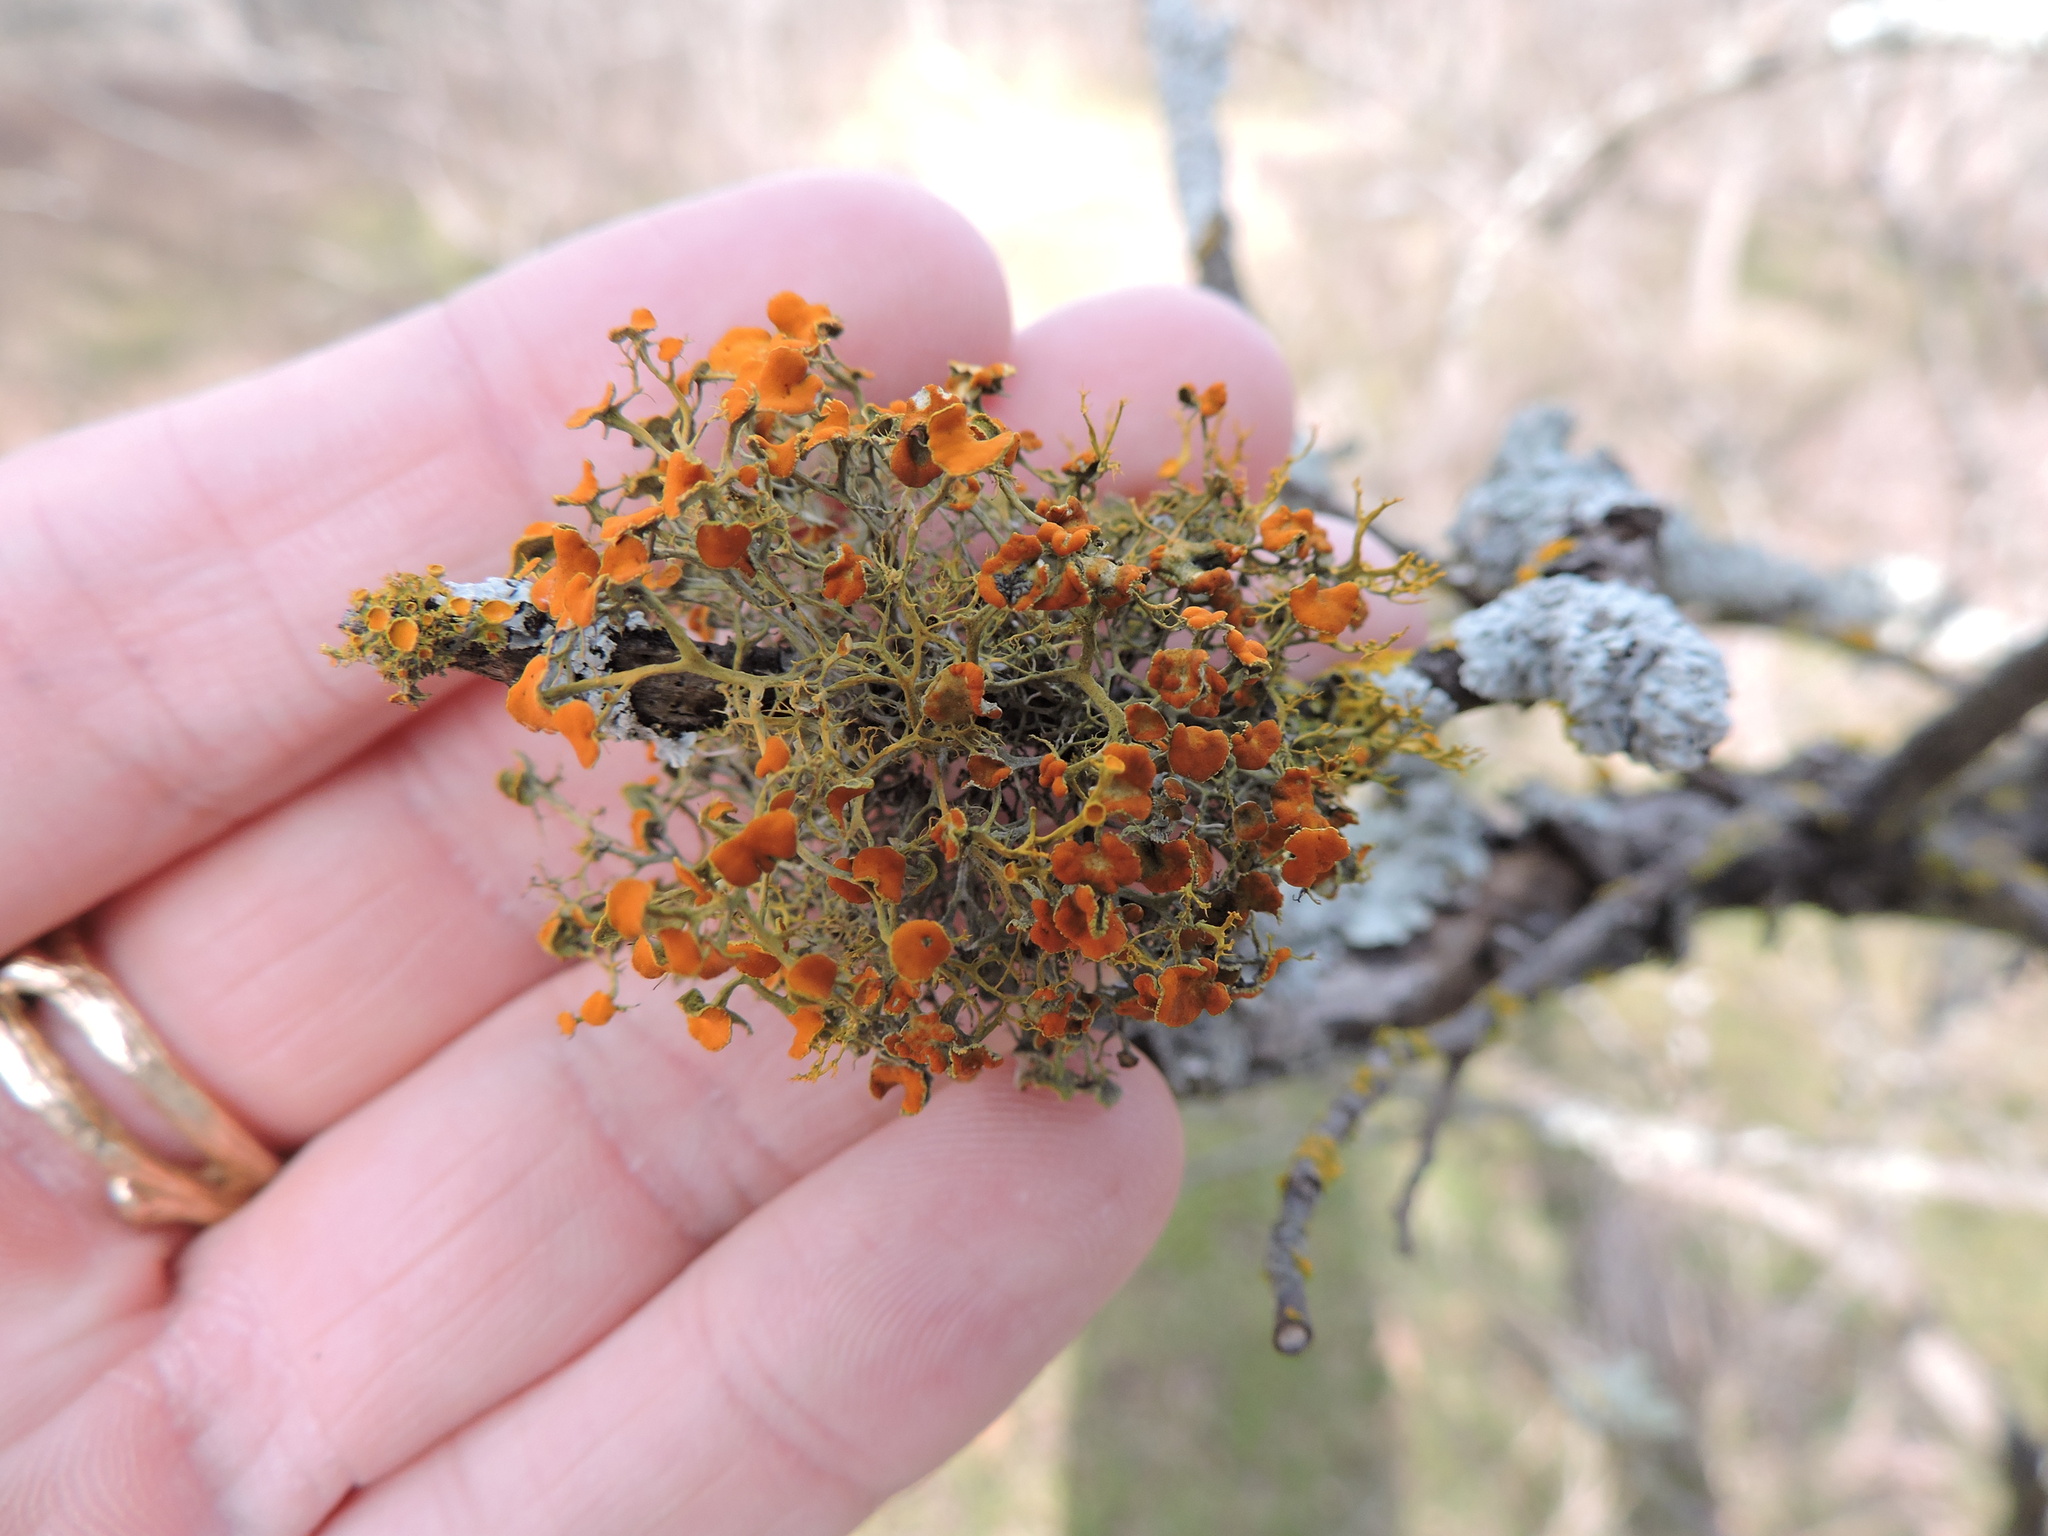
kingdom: Fungi
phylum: Ascomycota
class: Lecanoromycetes
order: Teloschistales
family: Teloschistaceae
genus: Teloschistes
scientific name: Teloschistes exilis
